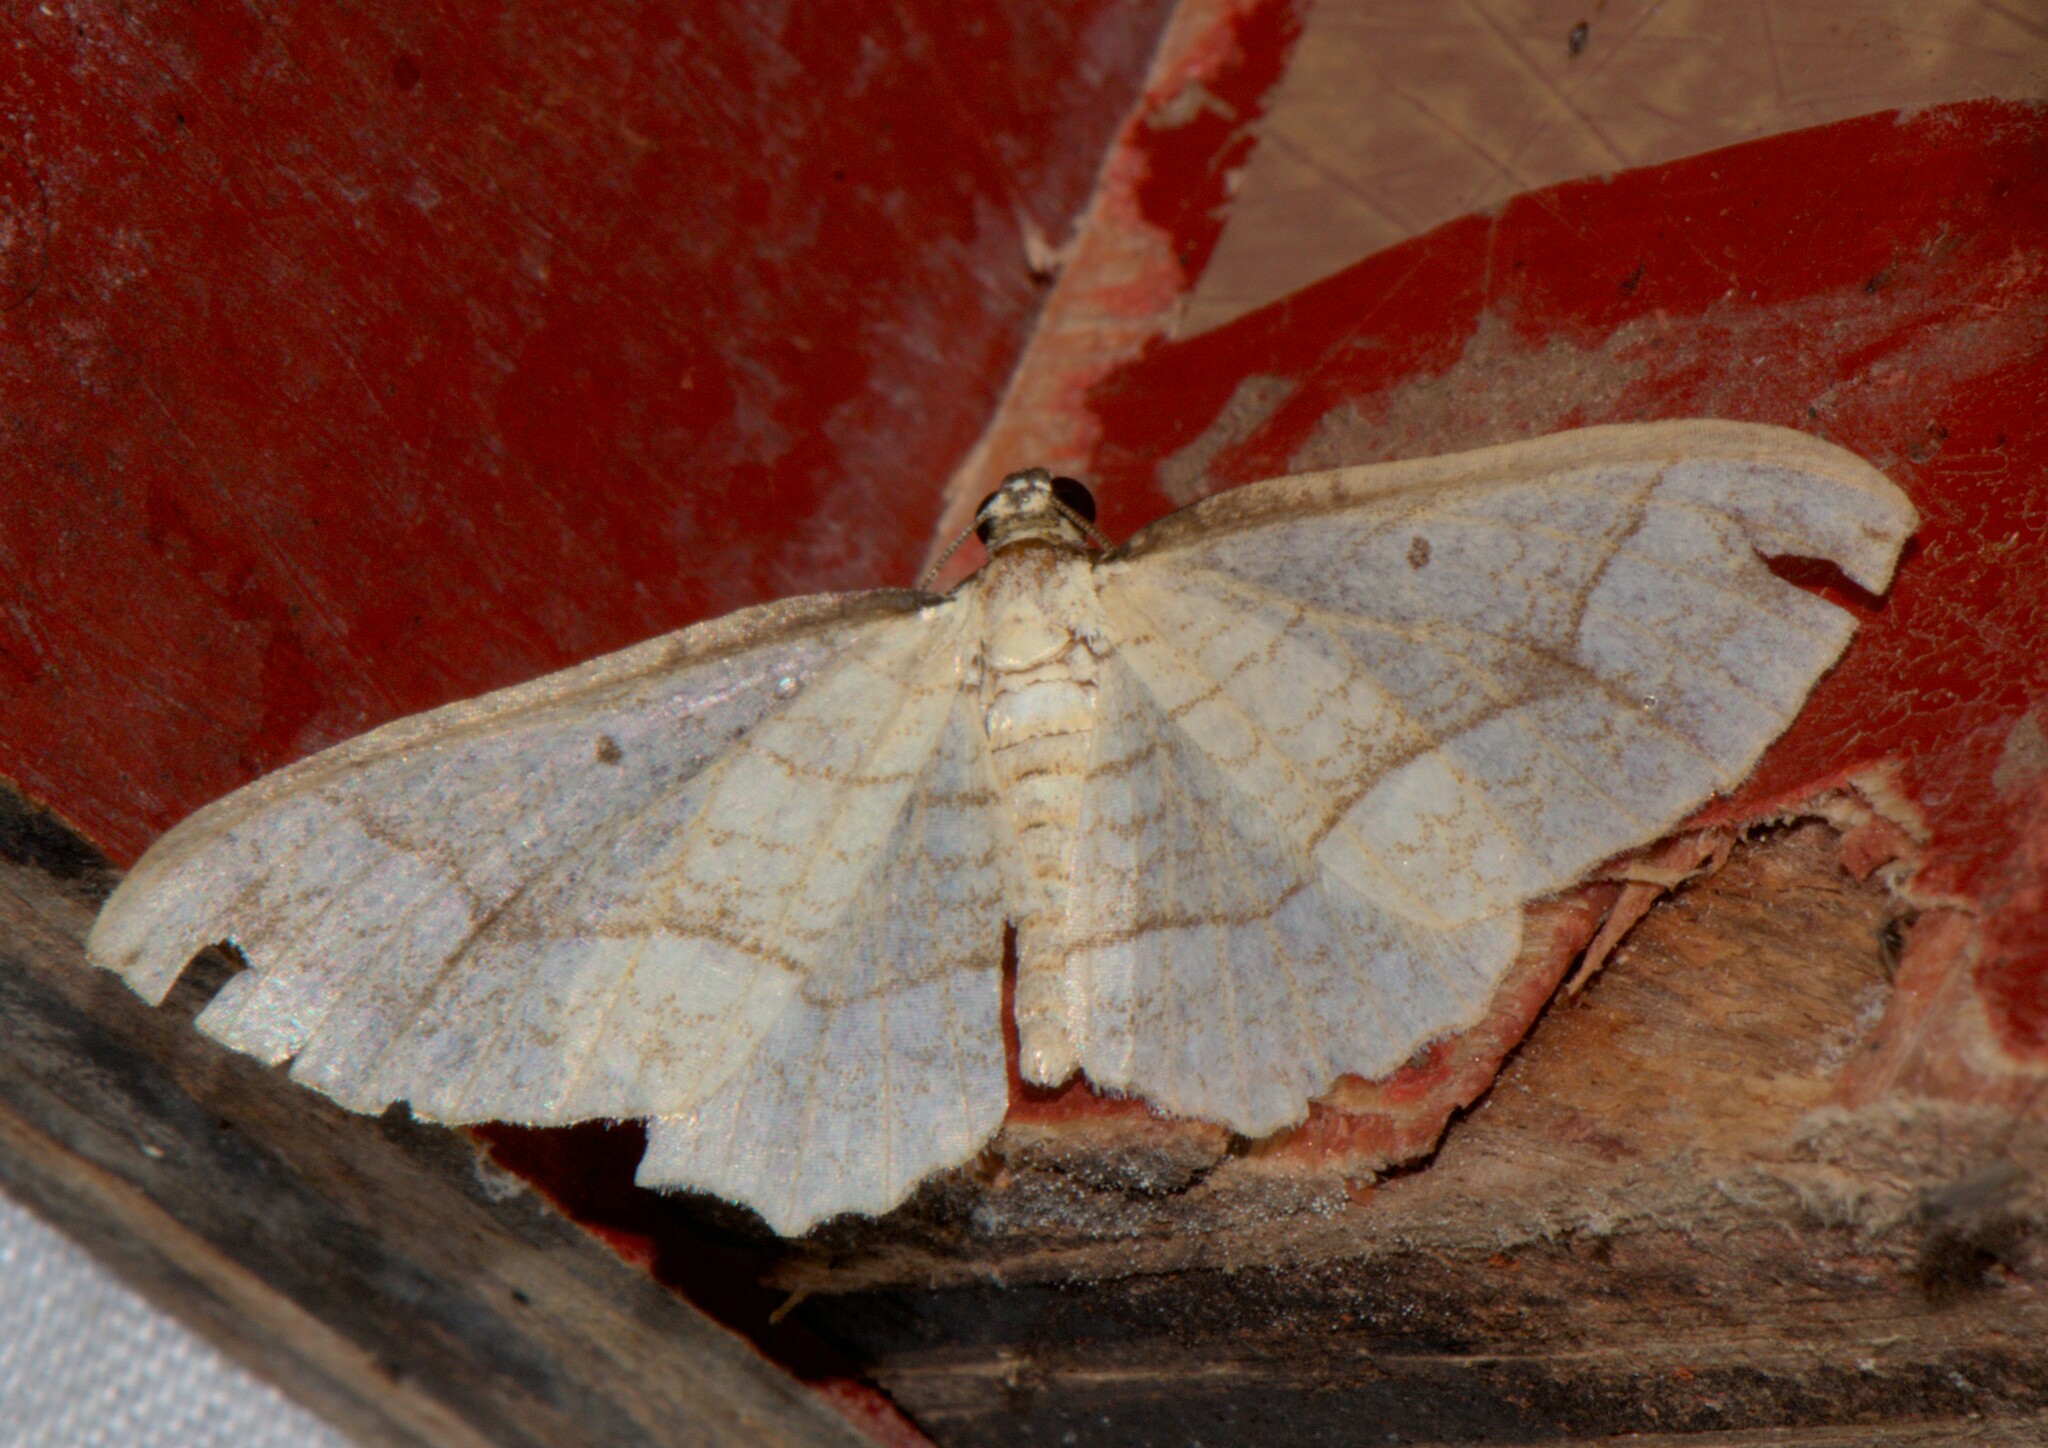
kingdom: Animalia
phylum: Arthropoda
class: Insecta
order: Lepidoptera
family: Geometridae
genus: Laciniodes
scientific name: Laciniodes plurilinearia
